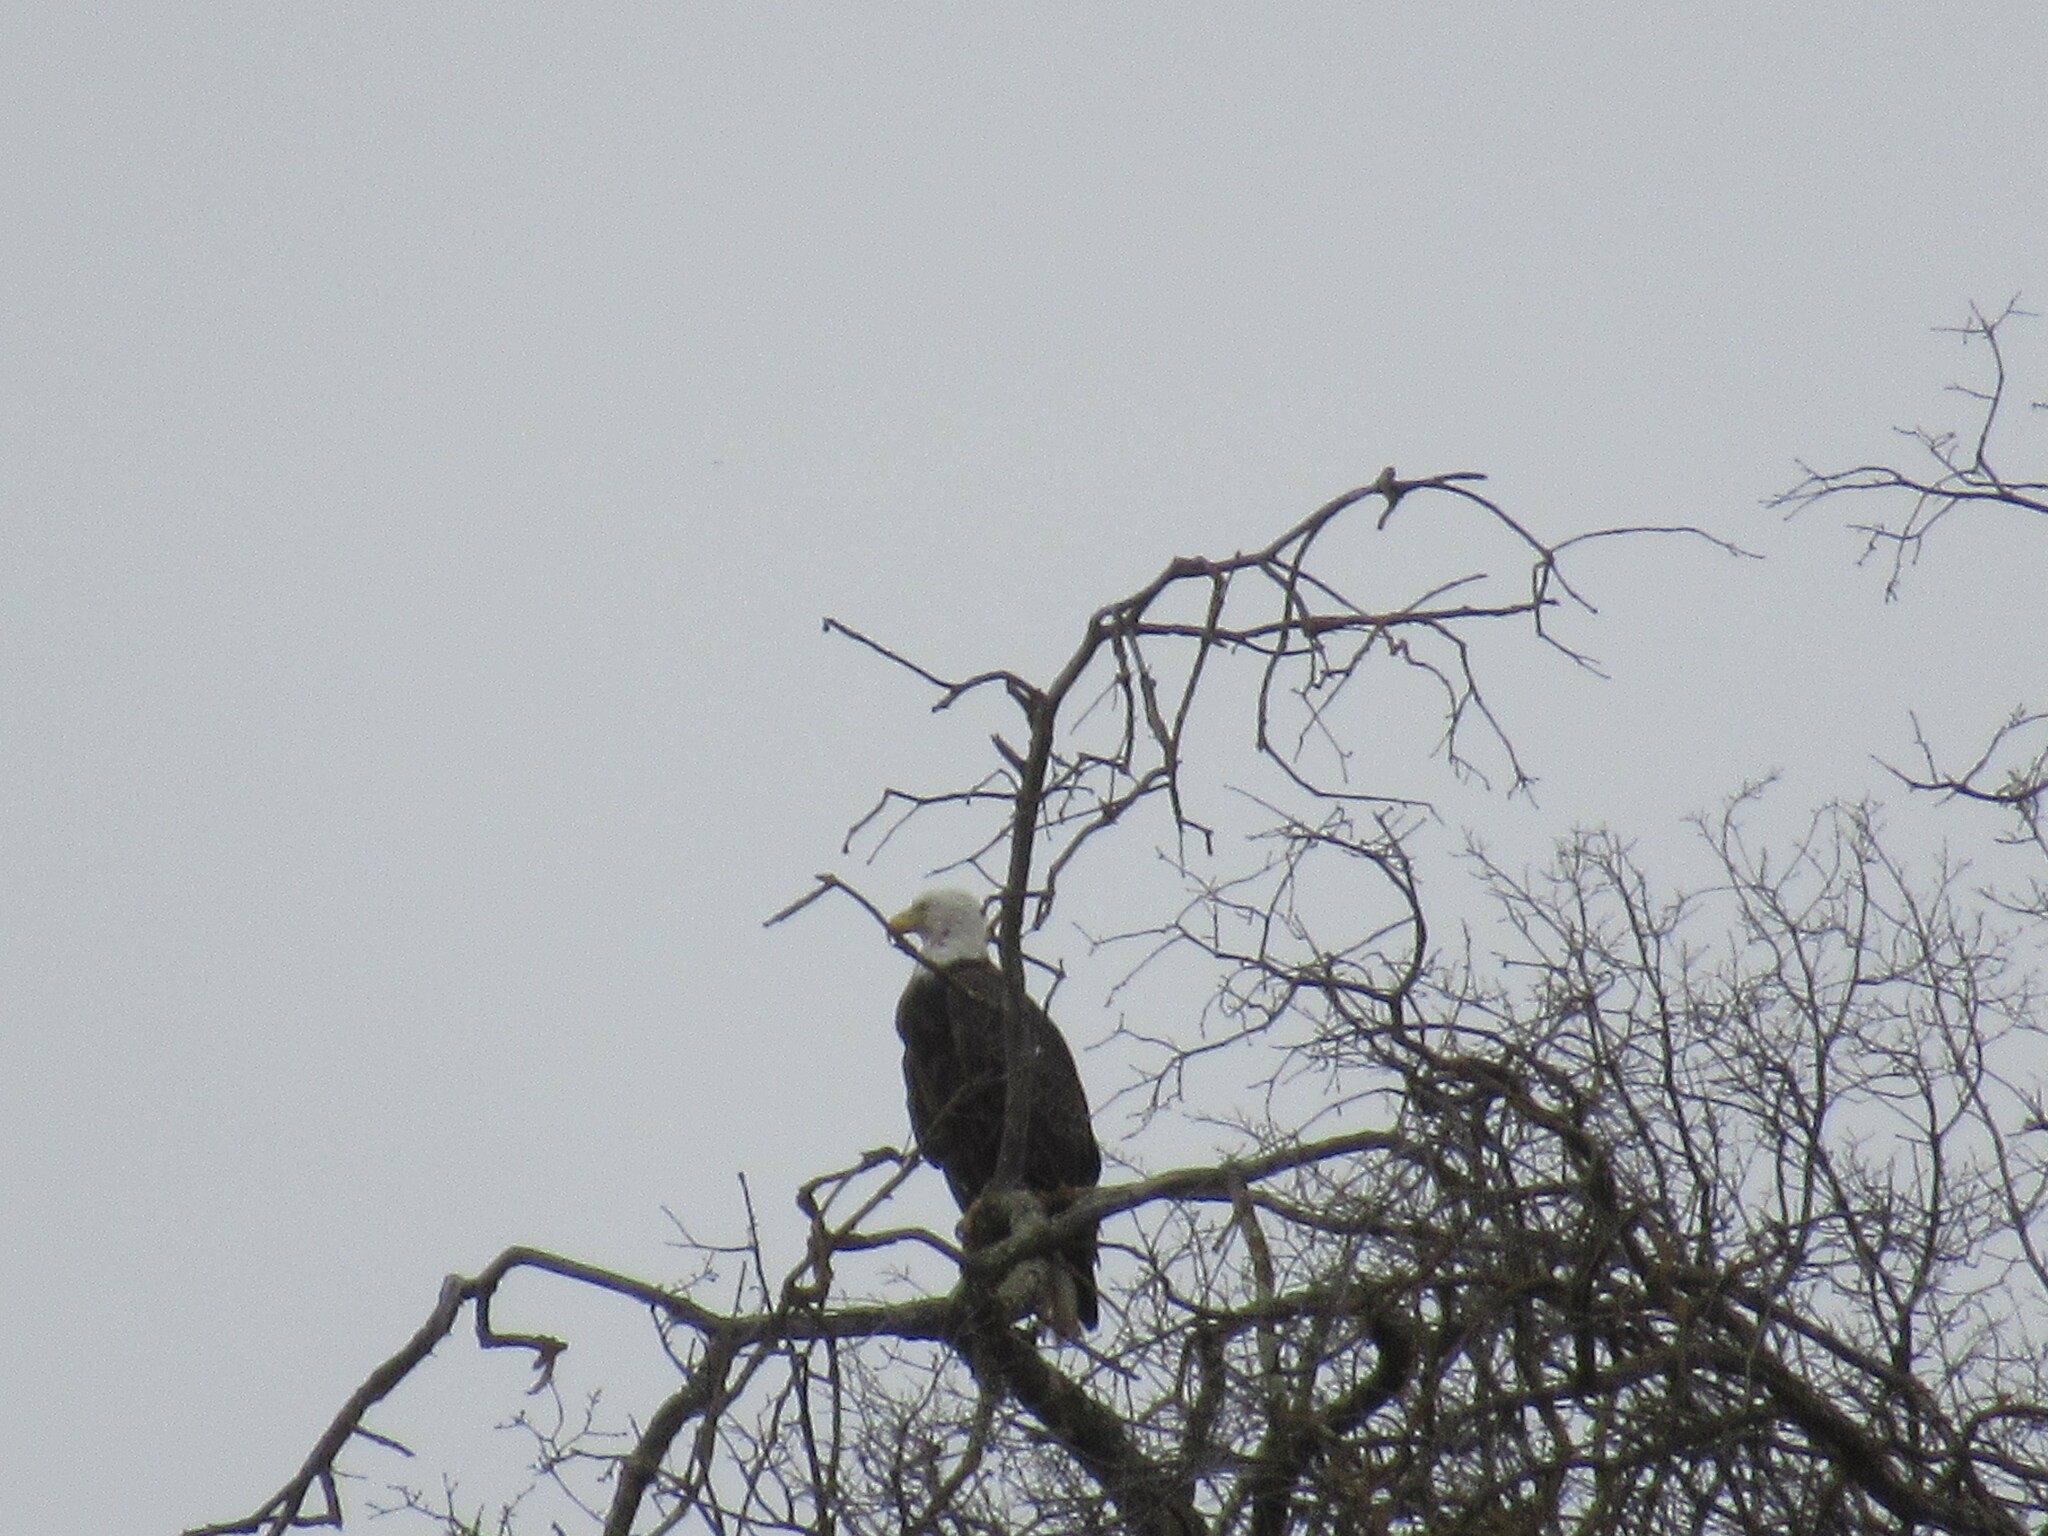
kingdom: Animalia
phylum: Chordata
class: Aves
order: Accipitriformes
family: Accipitridae
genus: Haliaeetus
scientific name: Haliaeetus leucocephalus
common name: Bald eagle
